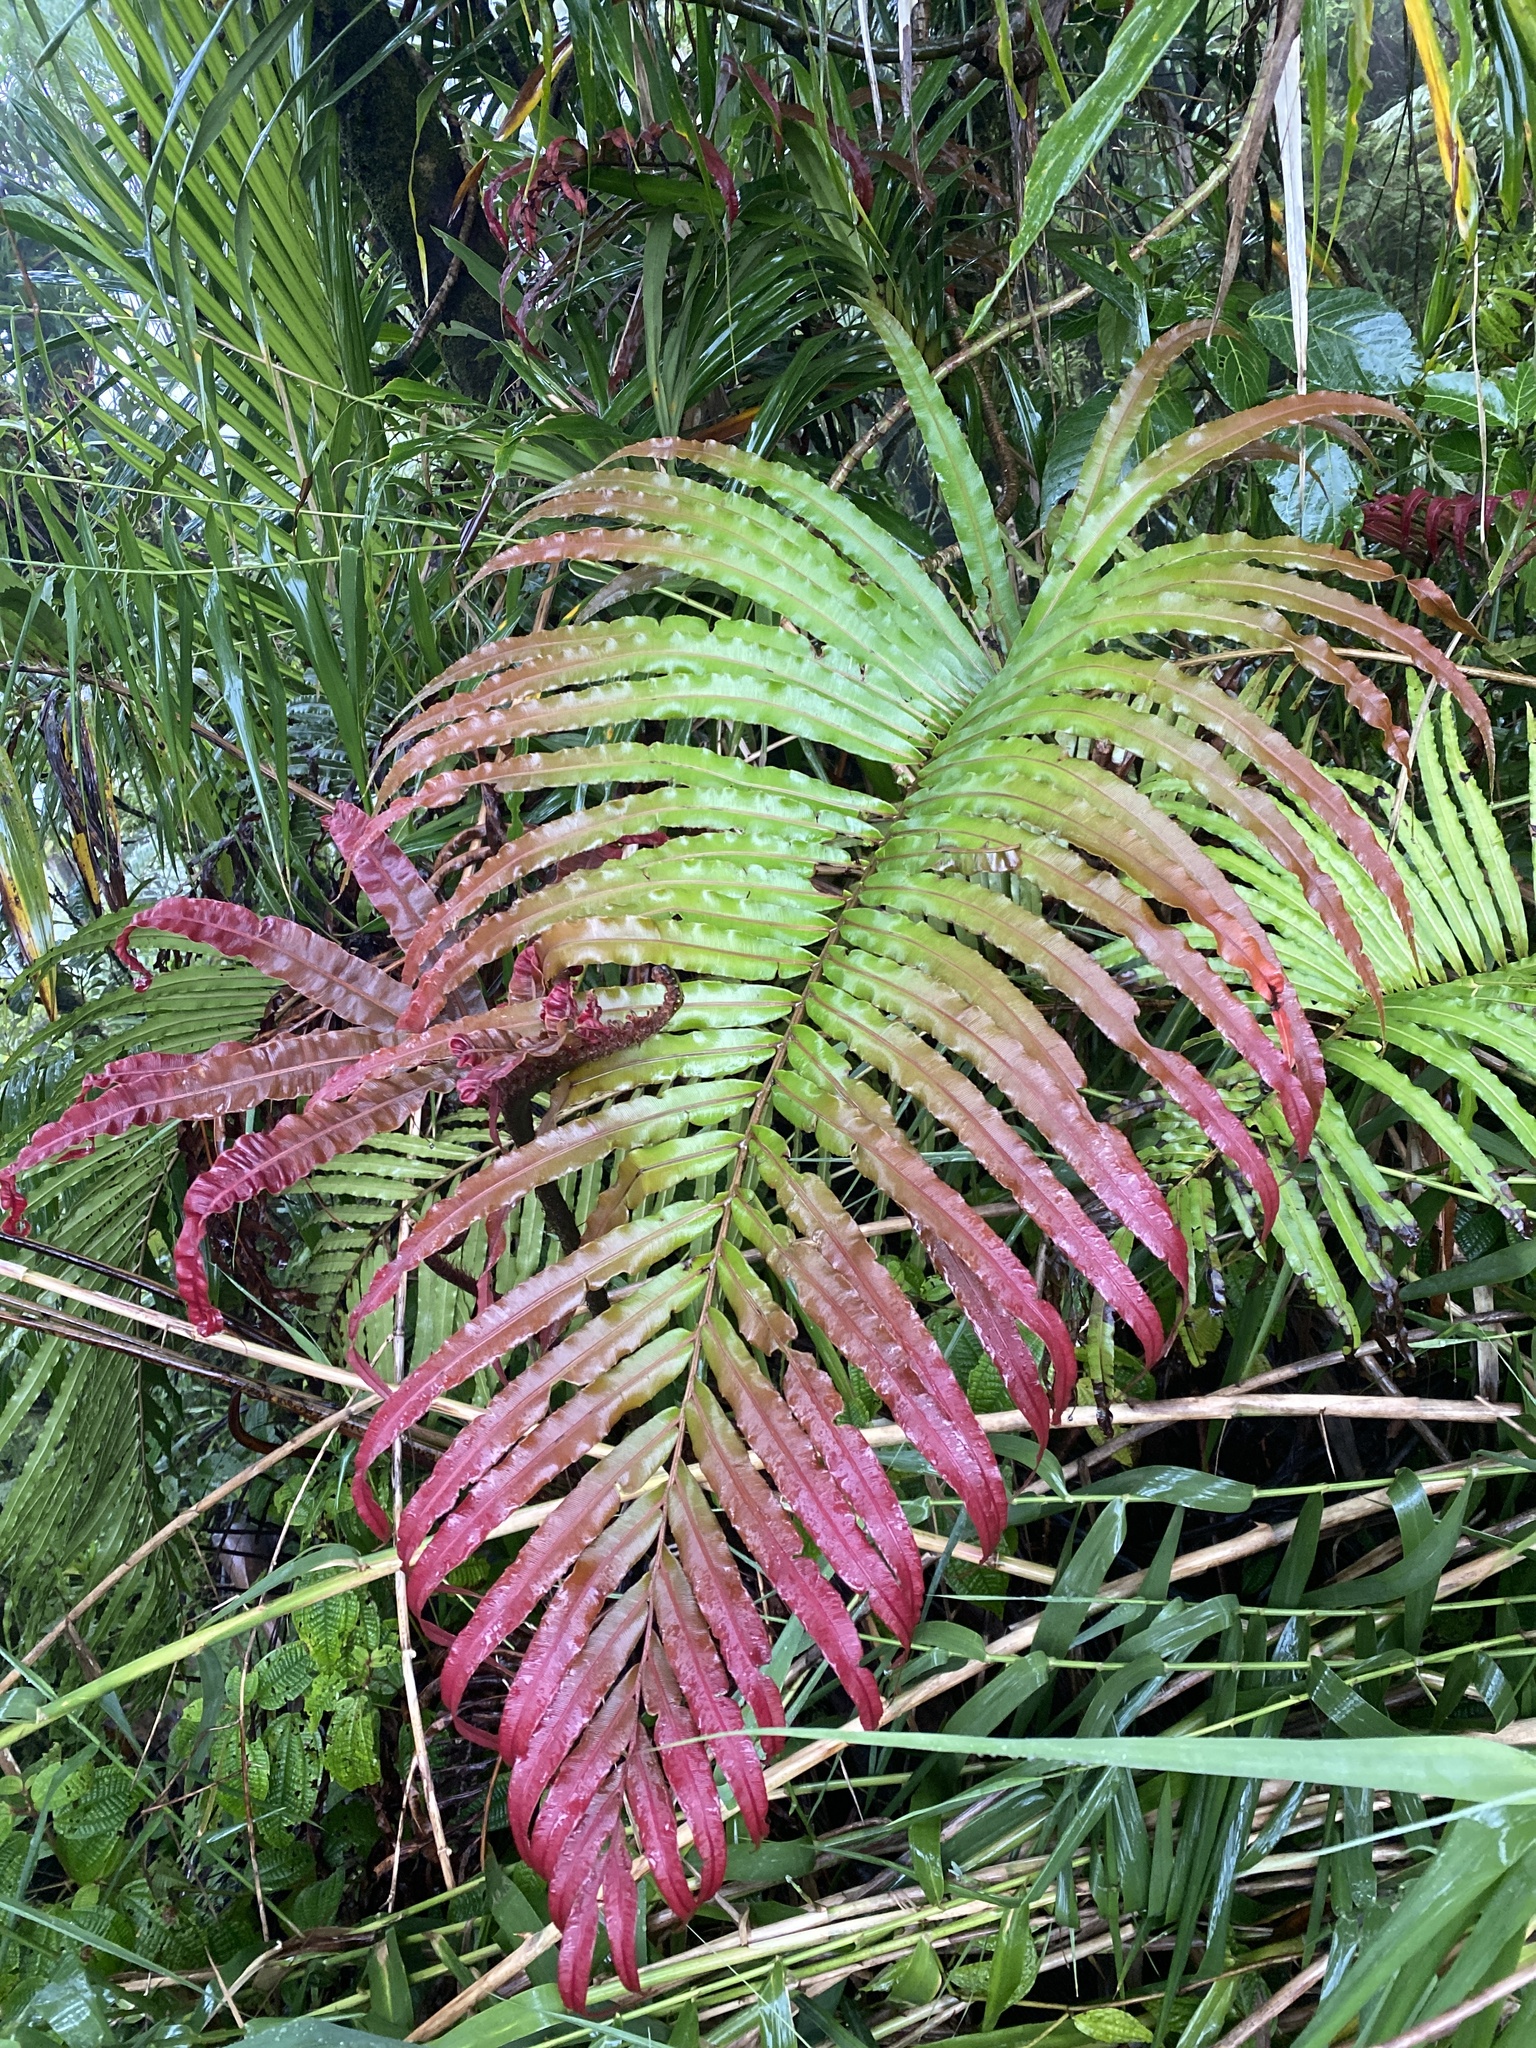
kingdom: Plantae
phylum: Tracheophyta
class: Polypodiopsida
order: Polypodiales
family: Blechnaceae
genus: Parablechnum
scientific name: Parablechnum milnei
